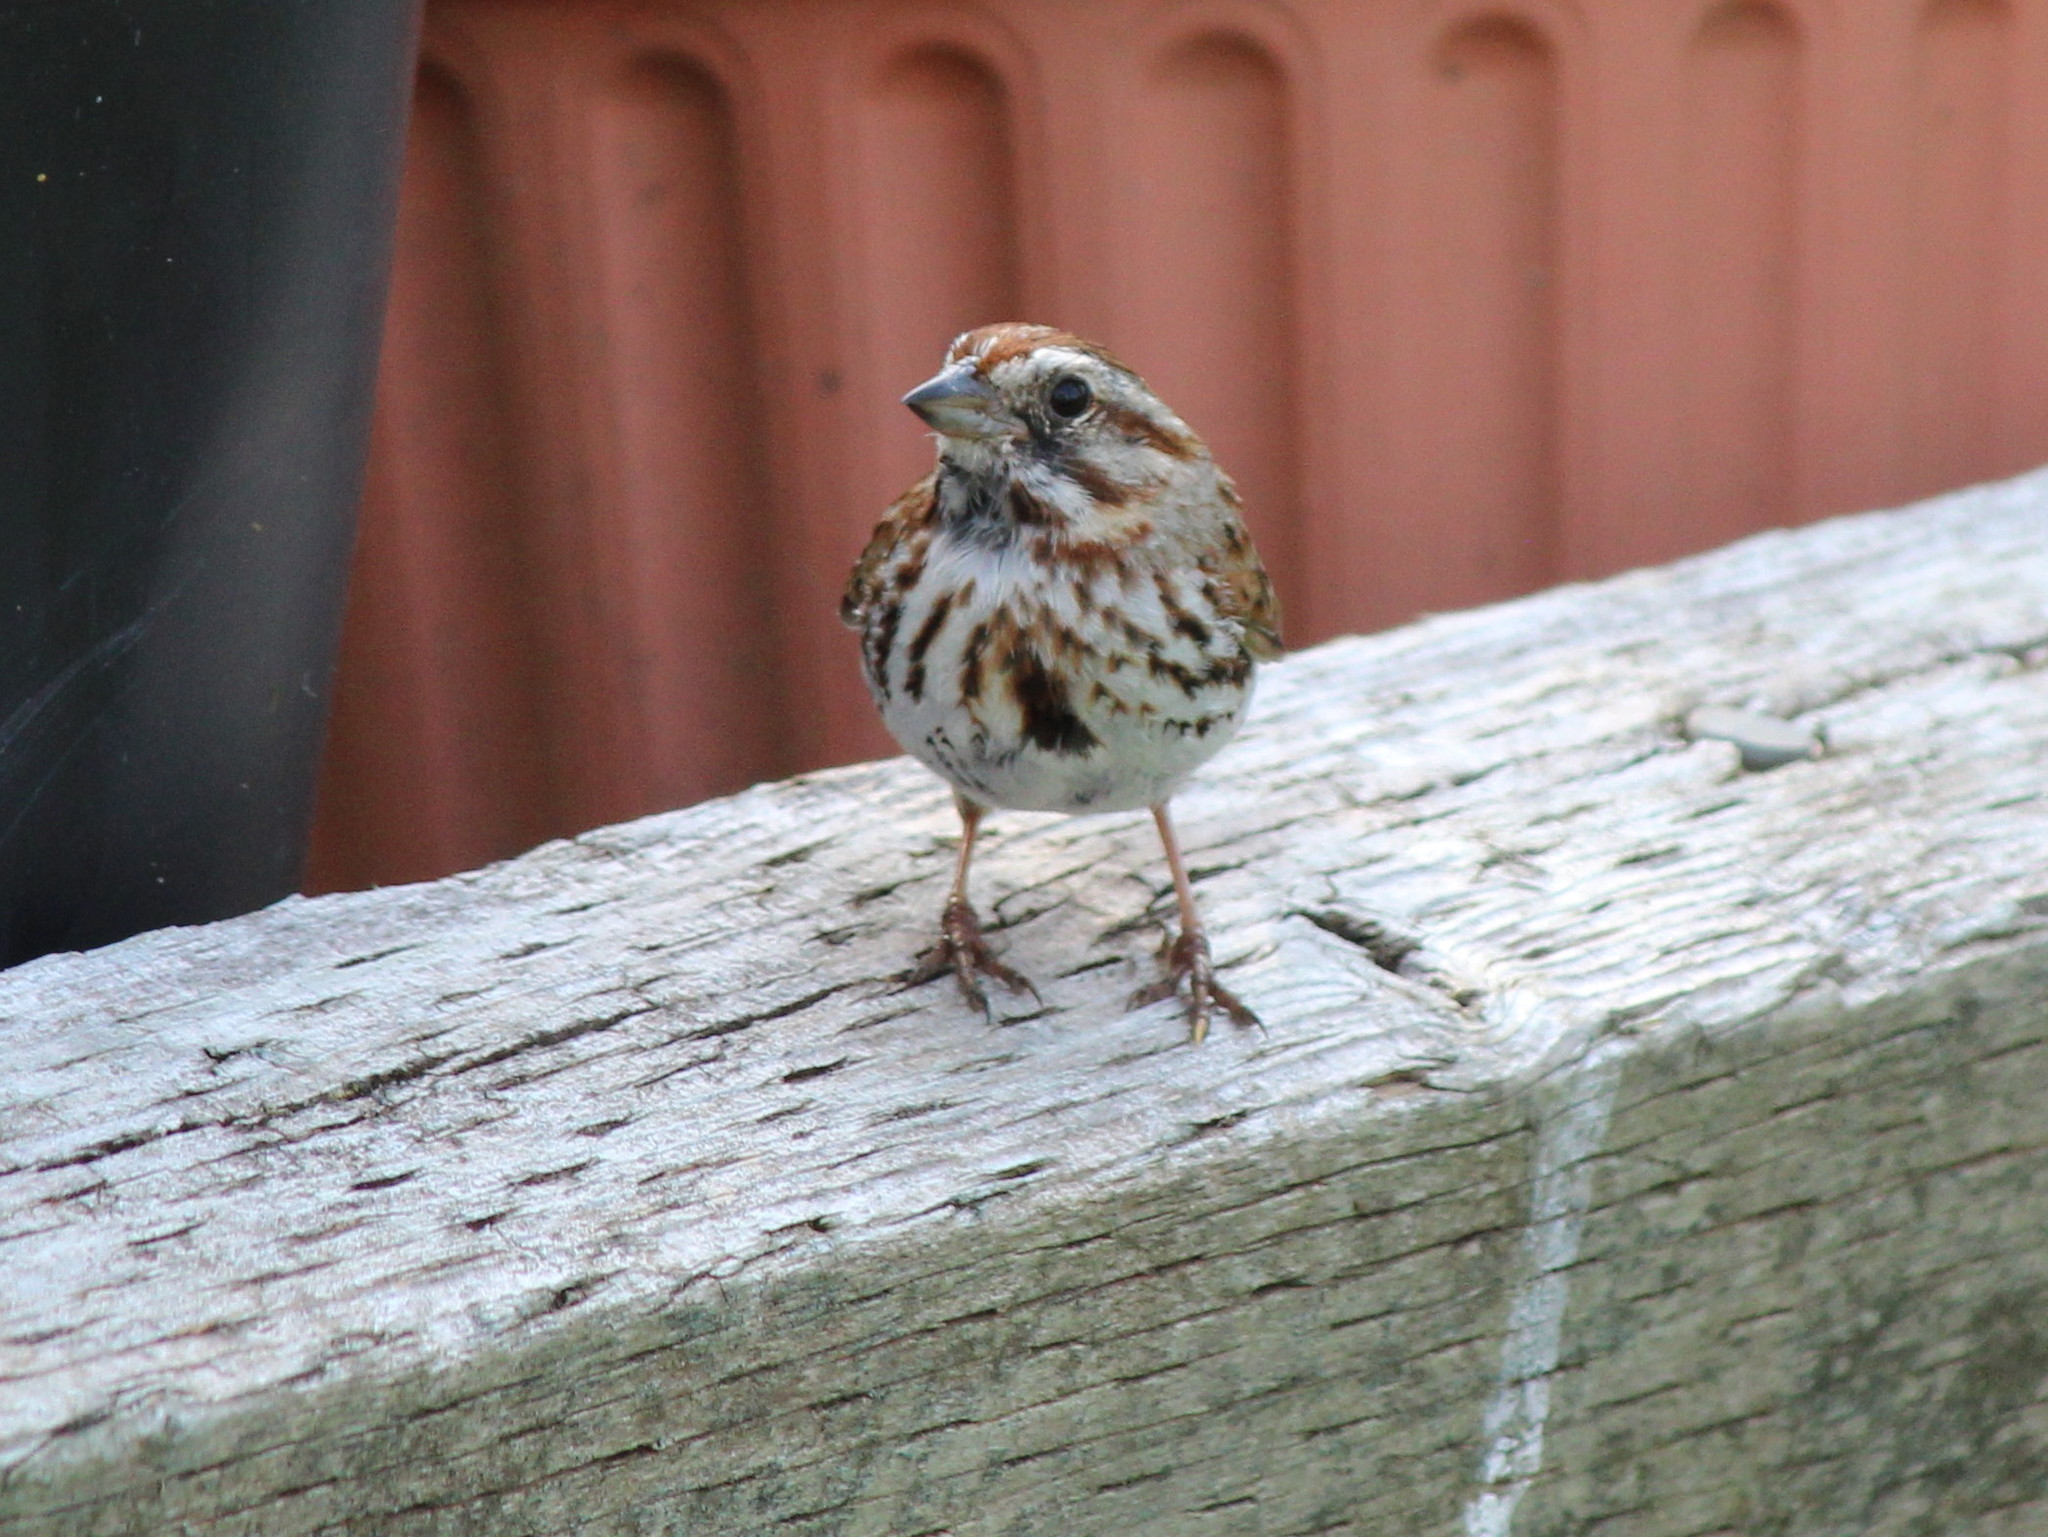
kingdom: Animalia
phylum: Chordata
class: Aves
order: Passeriformes
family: Passerellidae
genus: Melospiza
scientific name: Melospiza melodia
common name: Song sparrow
